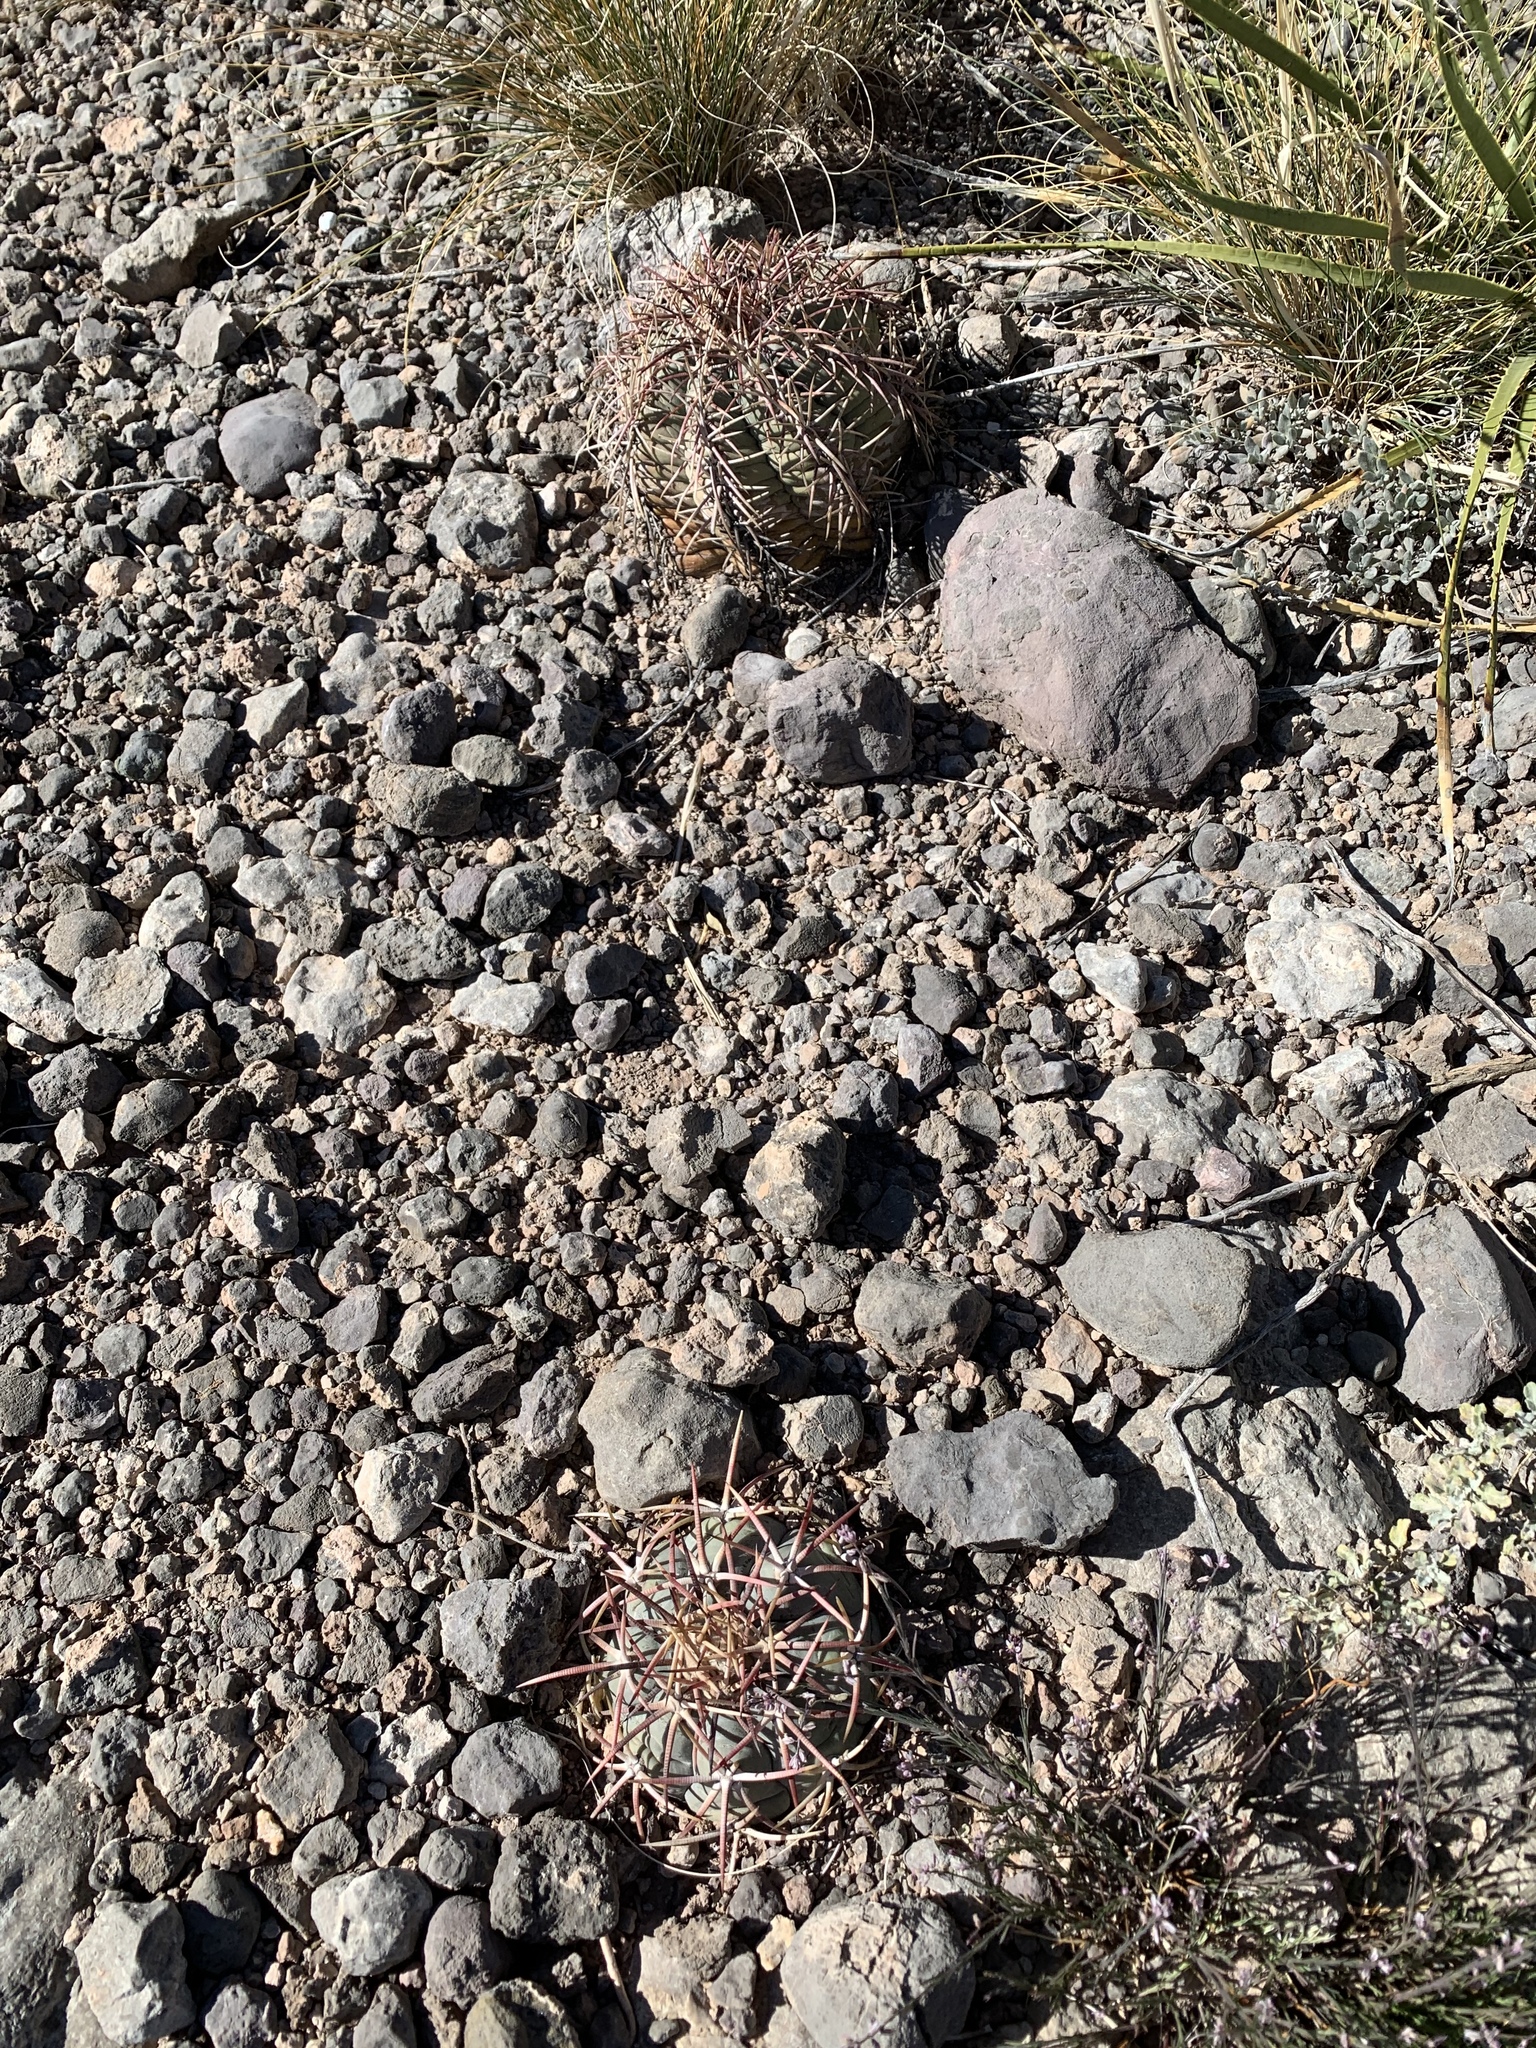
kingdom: Plantae
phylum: Tracheophyta
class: Magnoliopsida
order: Caryophyllales
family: Cactaceae
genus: Echinocactus
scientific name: Echinocactus horizonthalonius
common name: Devilshead
